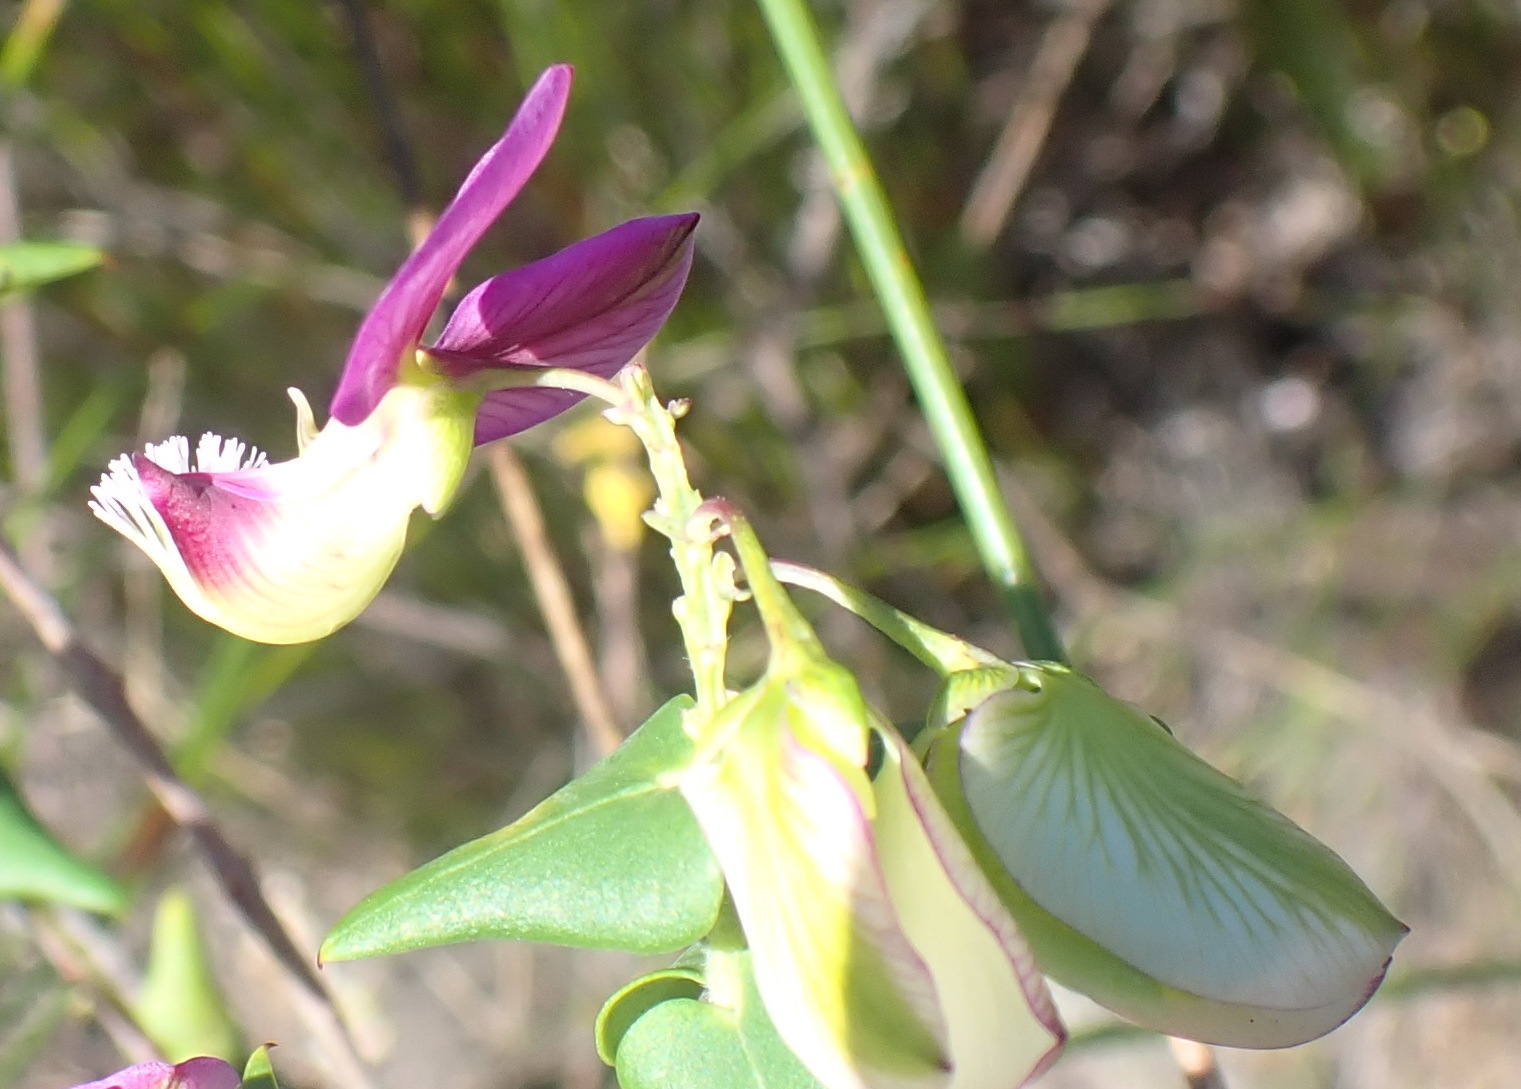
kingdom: Plantae
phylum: Tracheophyta
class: Magnoliopsida
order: Fabales
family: Polygalaceae
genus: Polygala
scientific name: Polygala fruticosa
